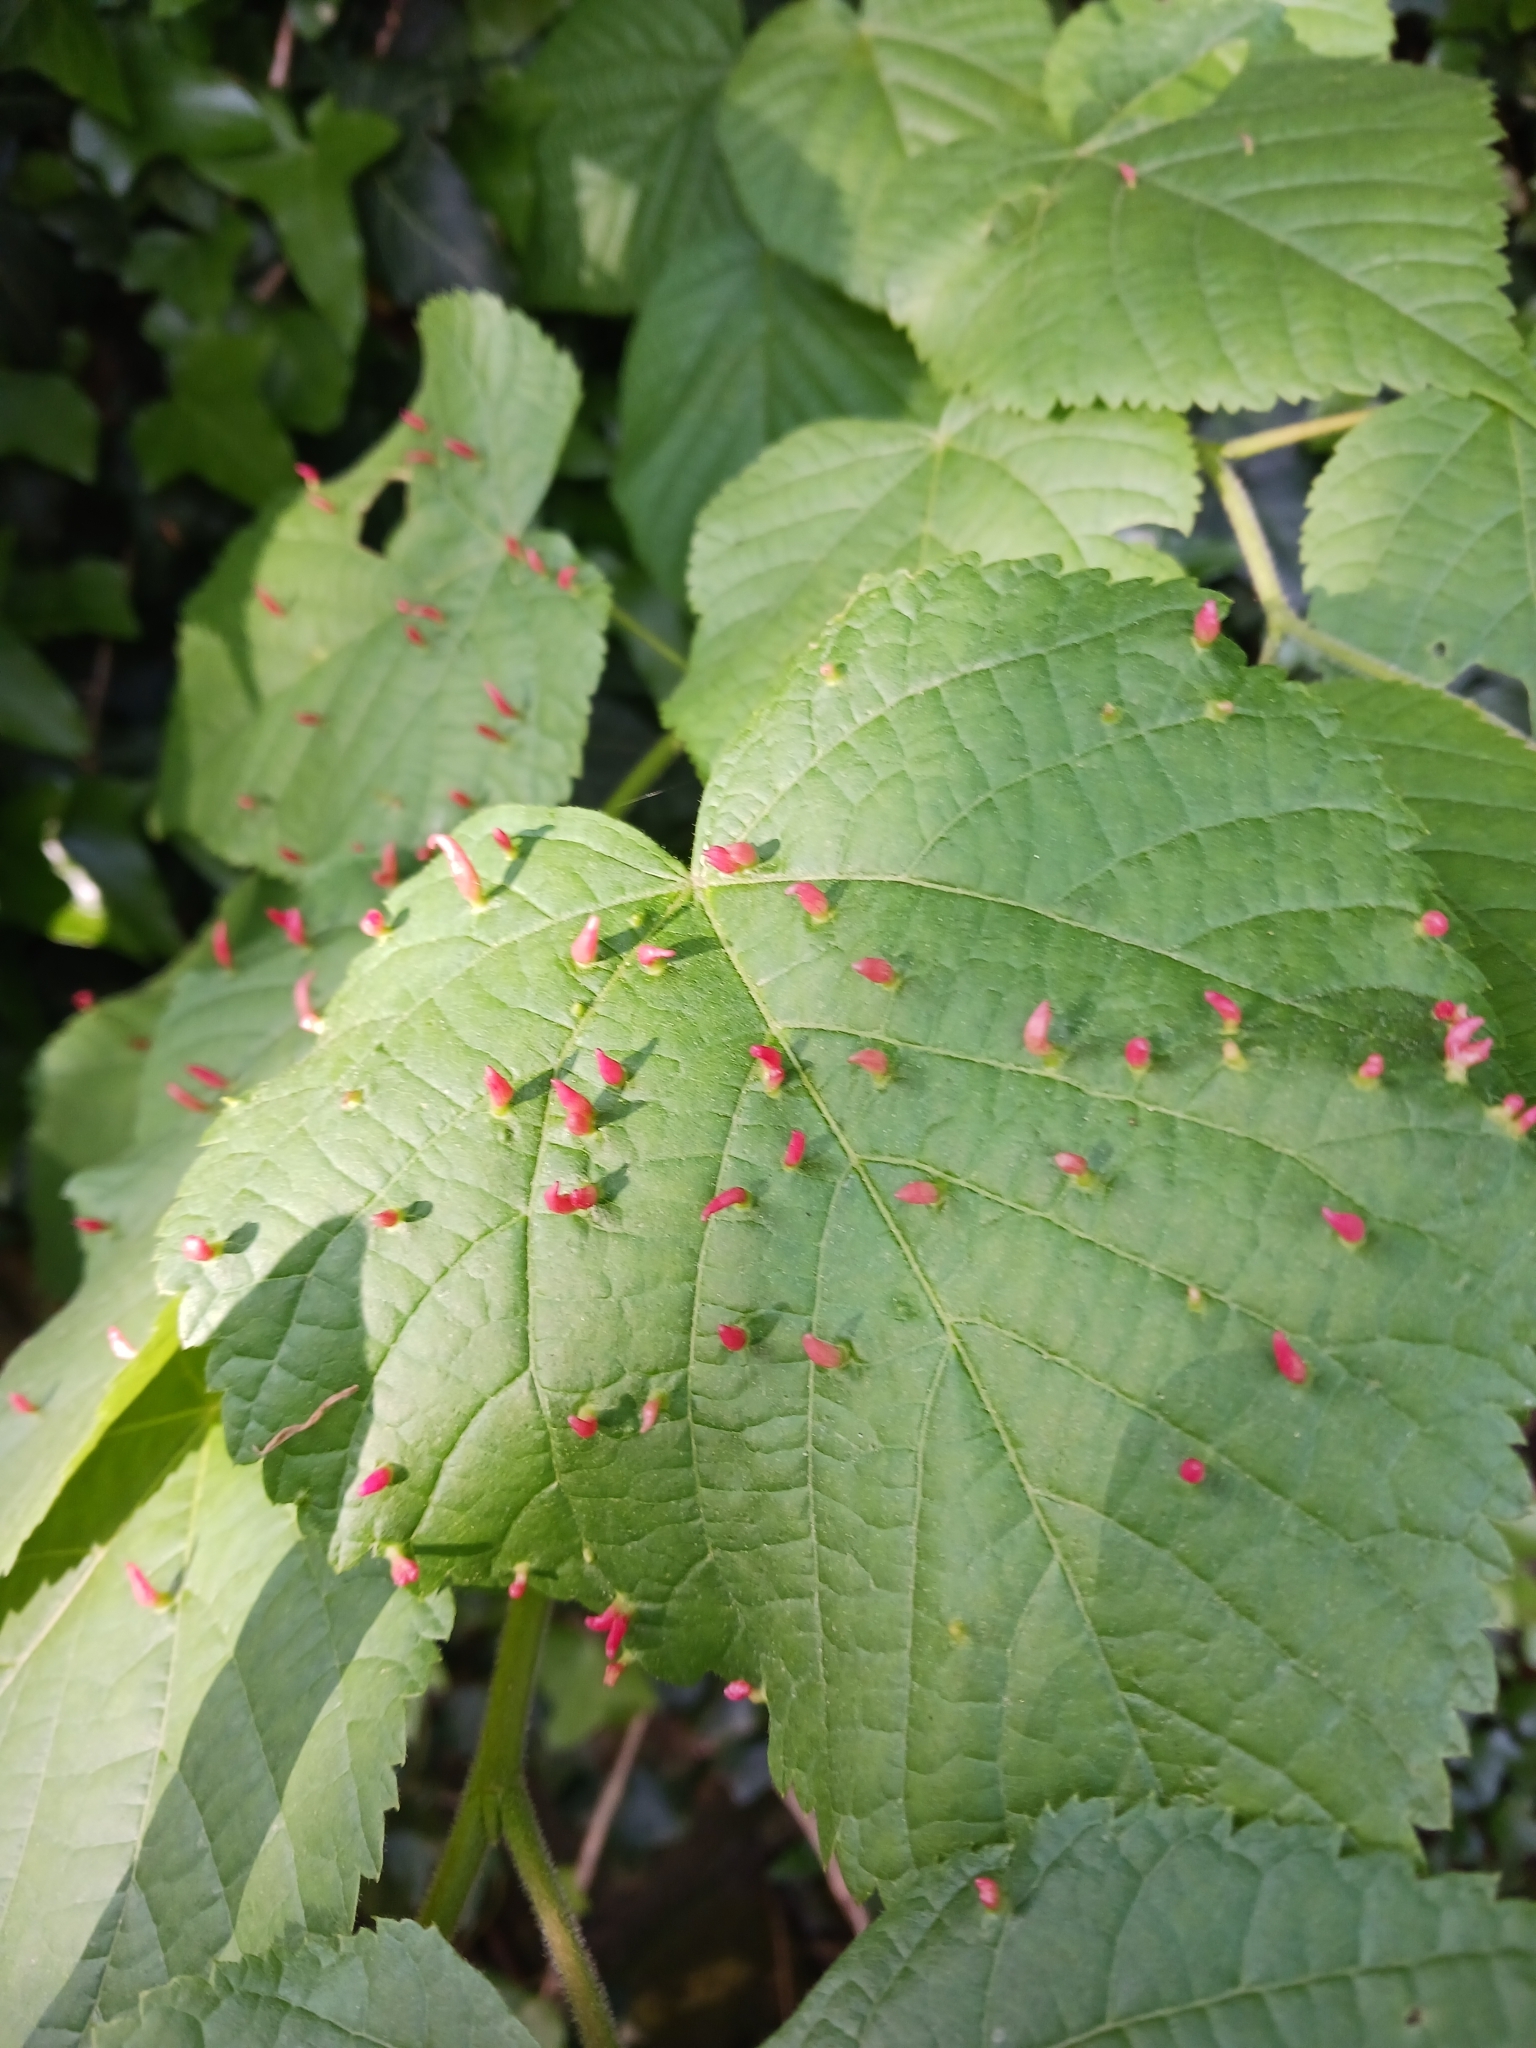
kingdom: Animalia
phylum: Arthropoda
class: Arachnida
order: Trombidiformes
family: Eriophyidae
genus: Eriophyes
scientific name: Eriophyes tiliae
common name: Red nail gall mite
